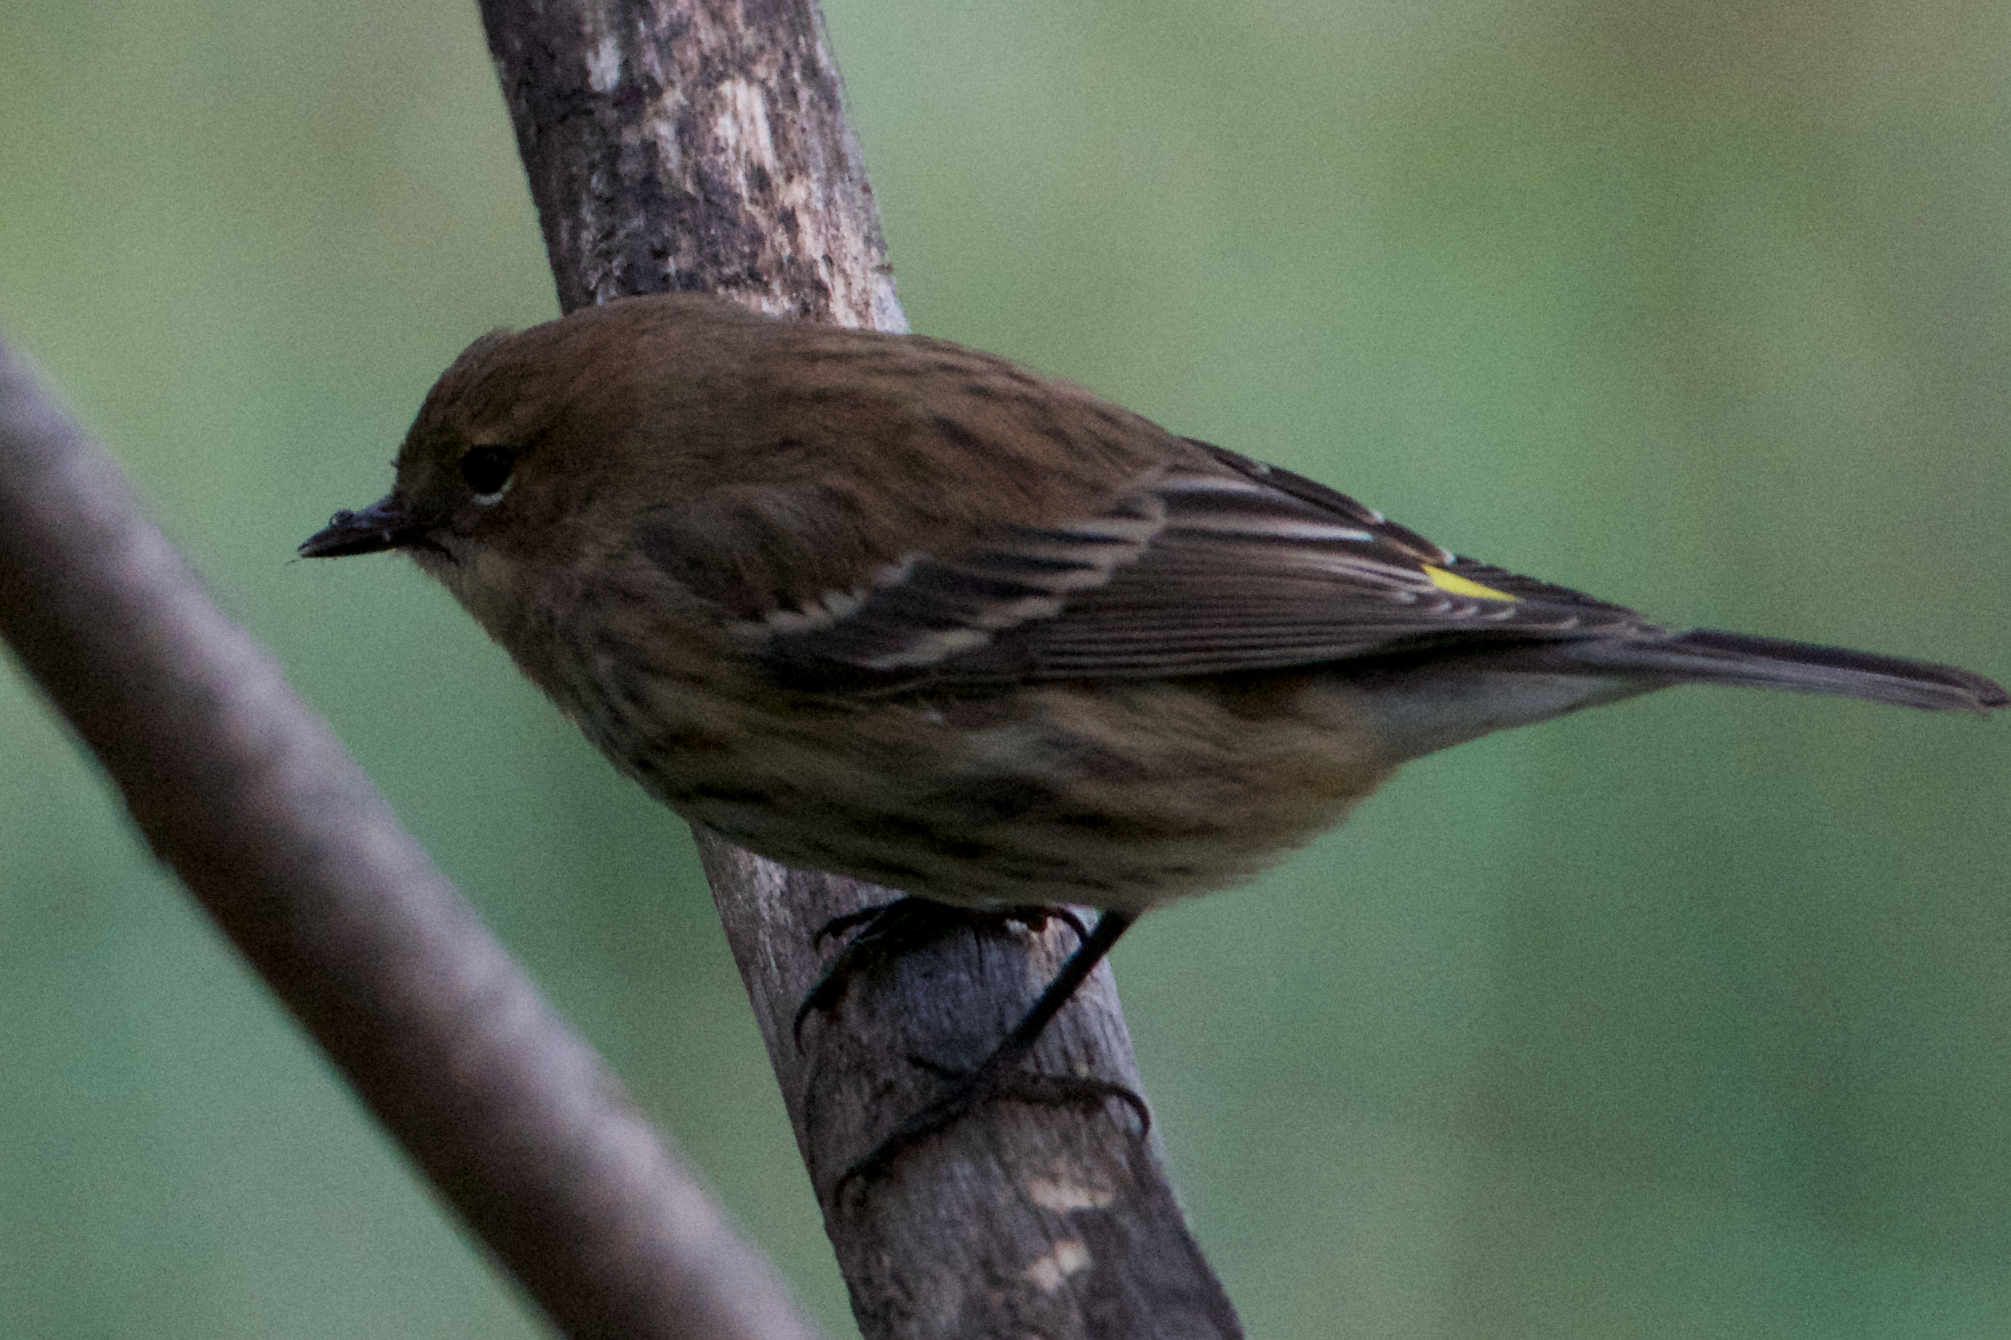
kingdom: Animalia
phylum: Chordata
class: Aves
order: Passeriformes
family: Parulidae
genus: Setophaga
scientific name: Setophaga coronata
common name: Myrtle warbler
